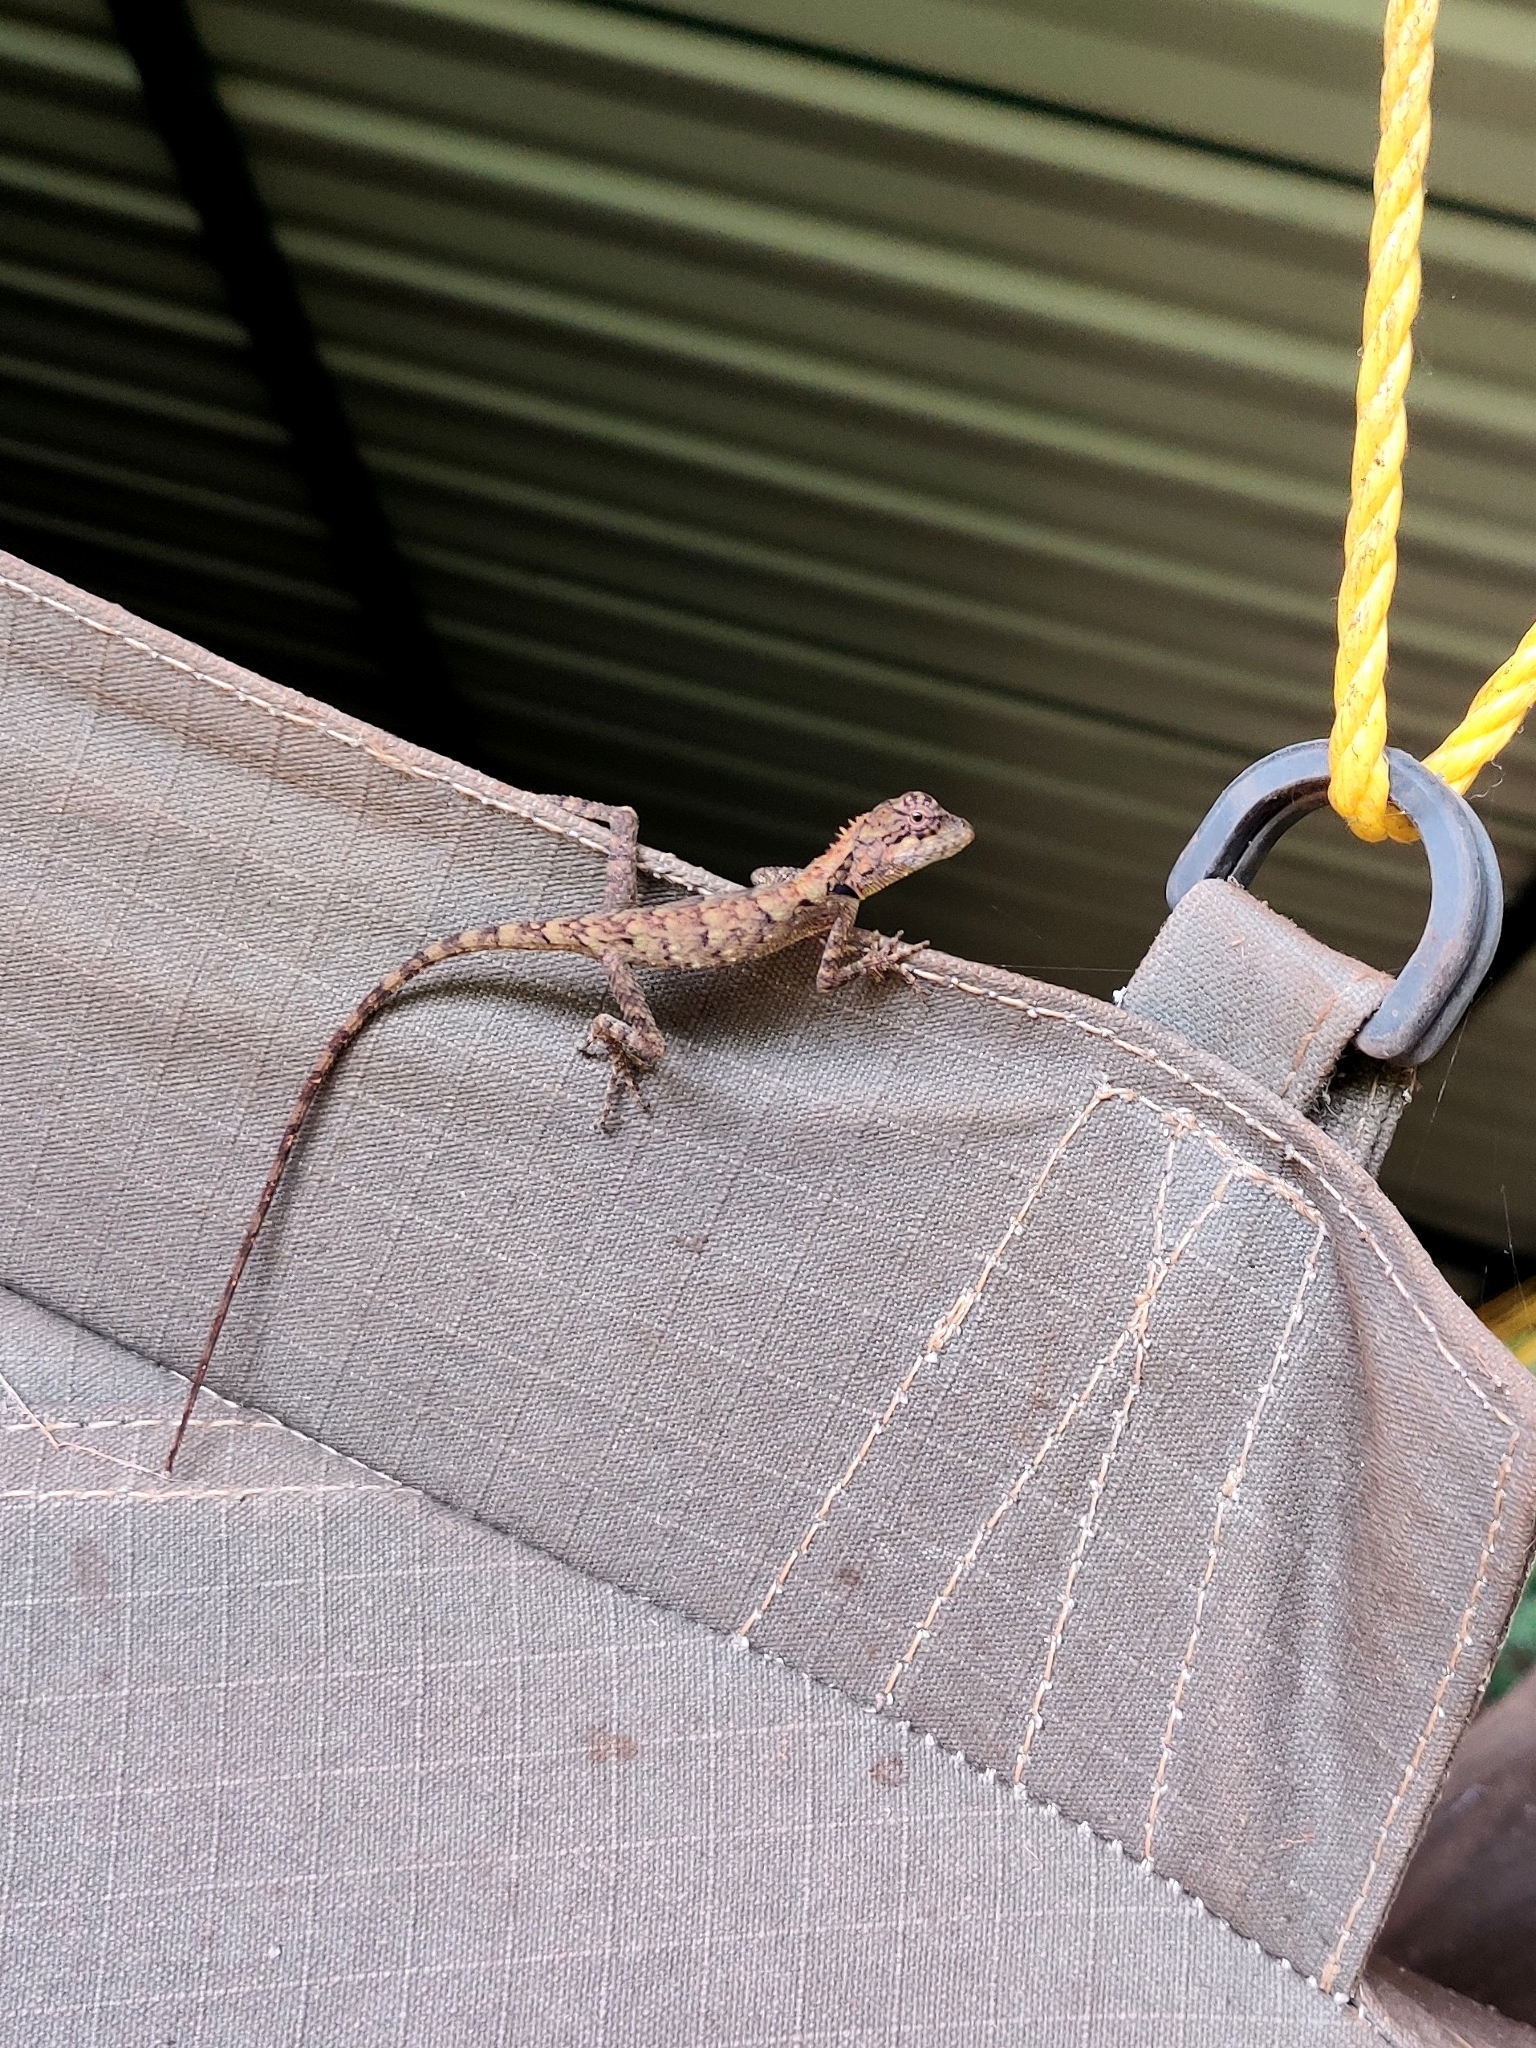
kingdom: Animalia
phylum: Chordata
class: Squamata
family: Agamidae
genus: Monilesaurus
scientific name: Monilesaurus rouxii
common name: Roux's forest lizard
